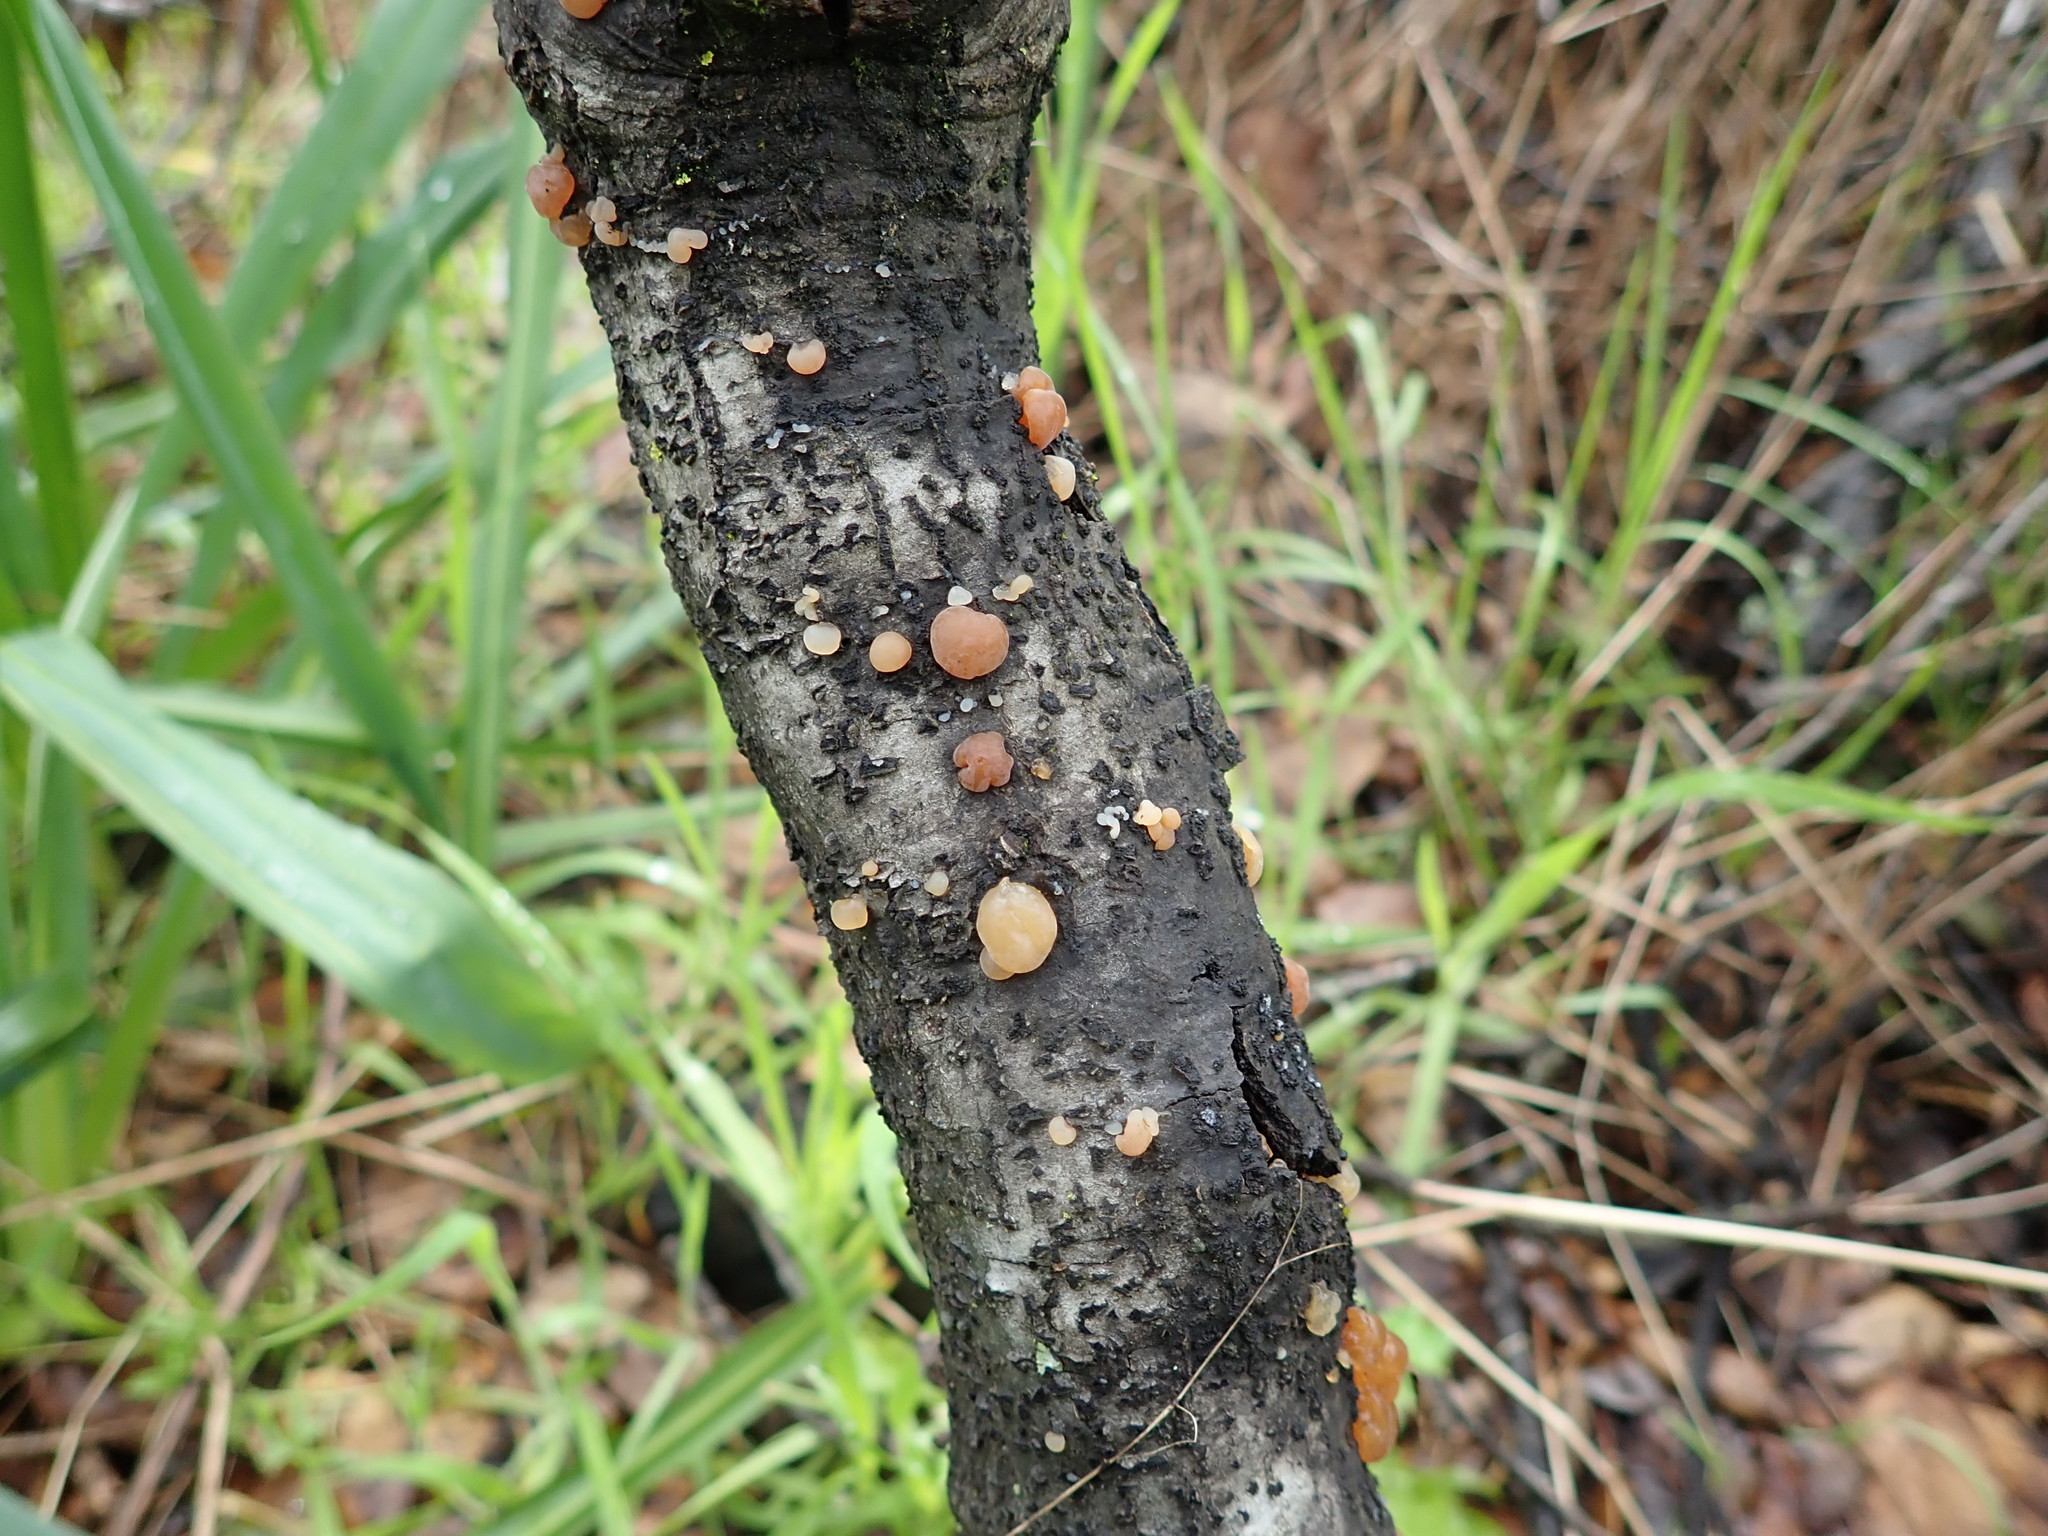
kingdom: Fungi
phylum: Basidiomycota
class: Agaricomycetes
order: Auriculariales
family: Hyaloriaceae
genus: Myxarium
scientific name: Myxarium nucleatum
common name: Crystal brain fungus
